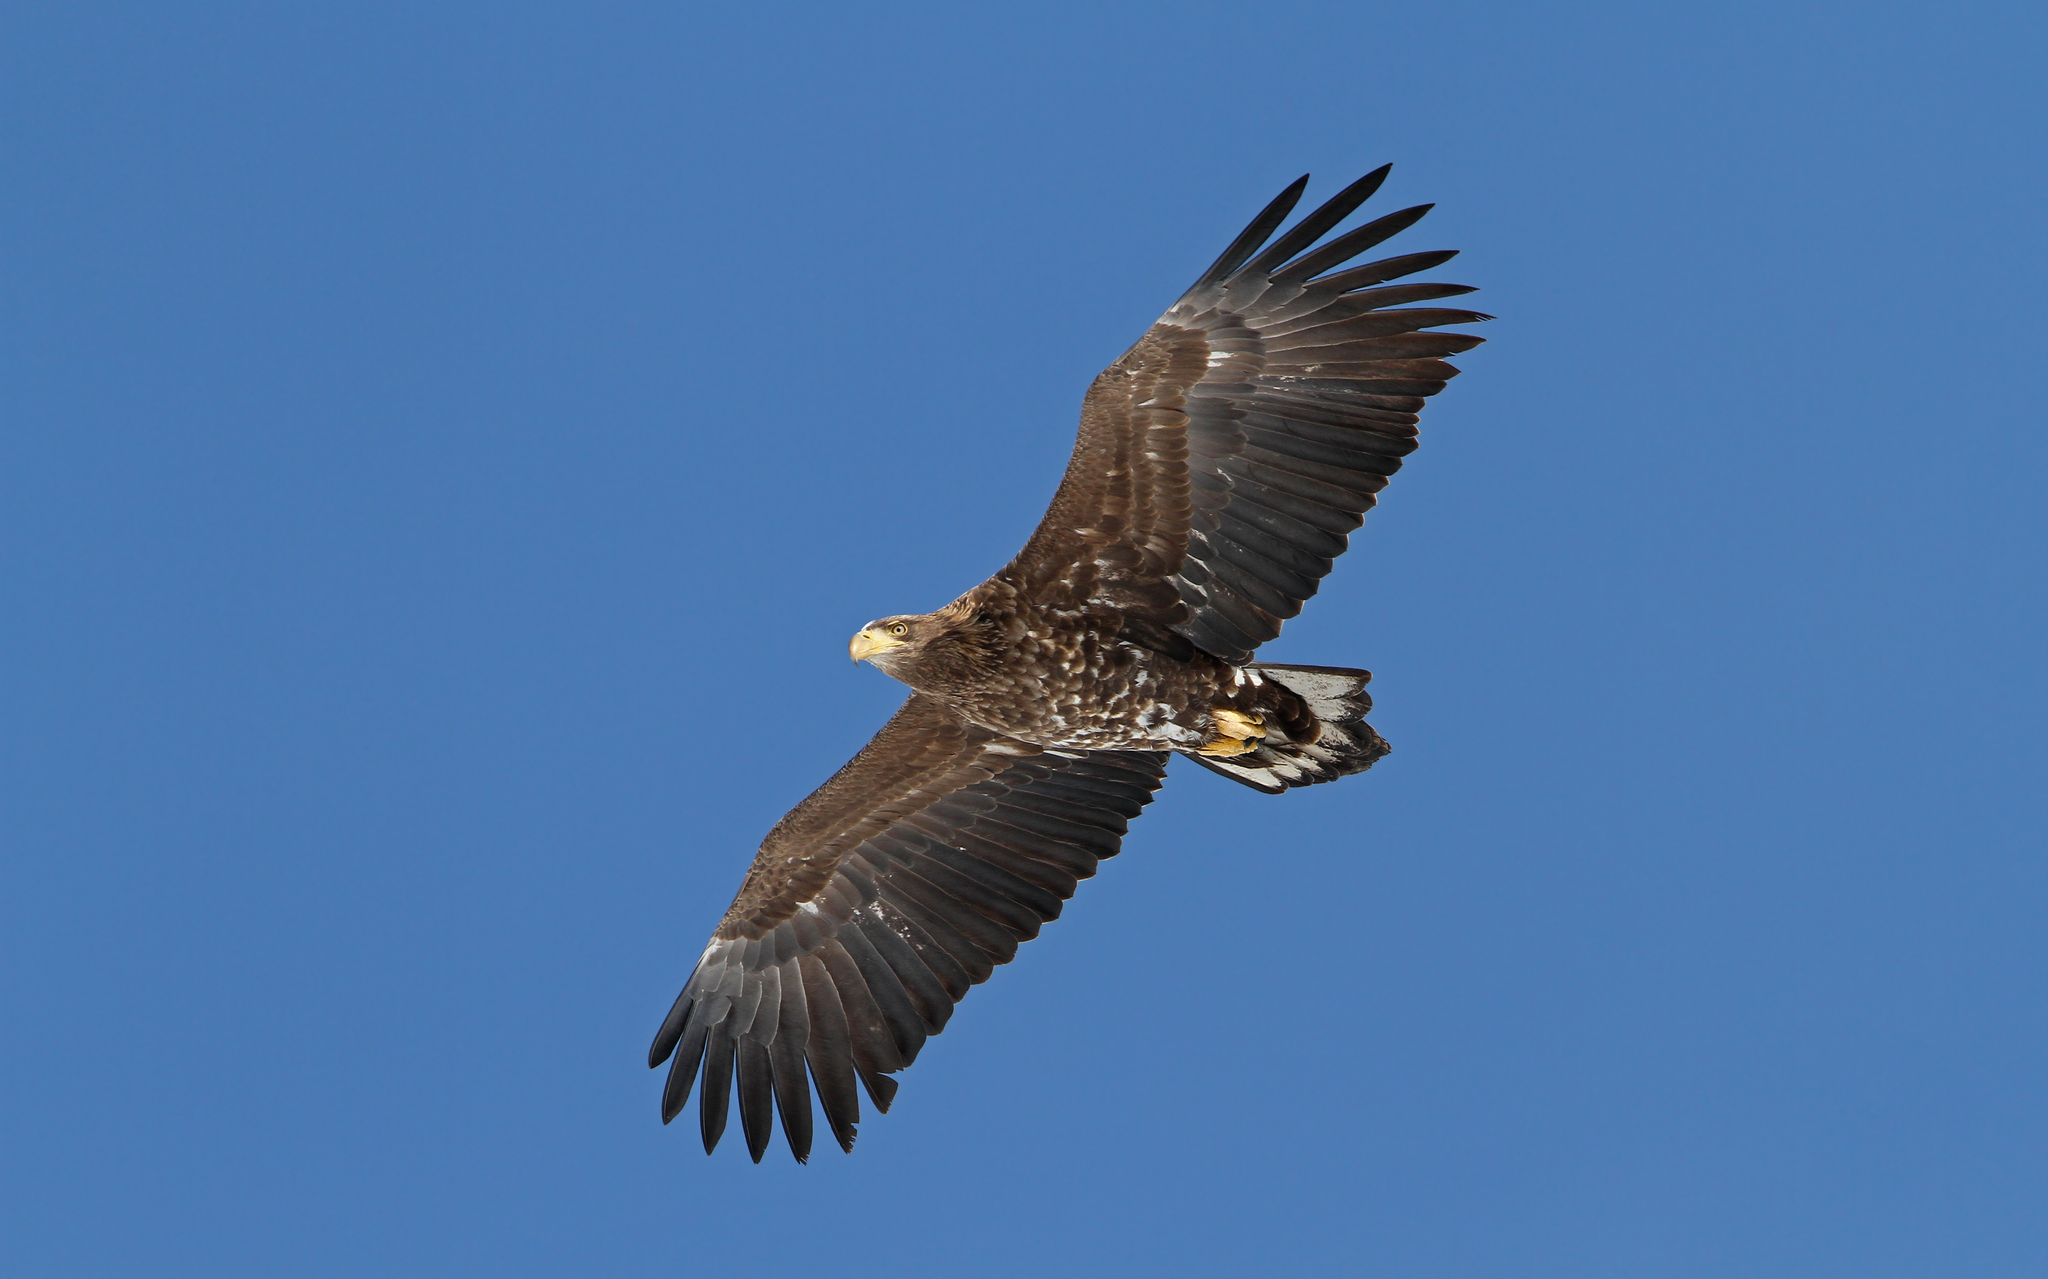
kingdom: Animalia
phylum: Chordata
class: Aves
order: Accipitriformes
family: Accipitridae
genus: Haliaeetus
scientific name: Haliaeetus albicilla
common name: White-tailed eagle
